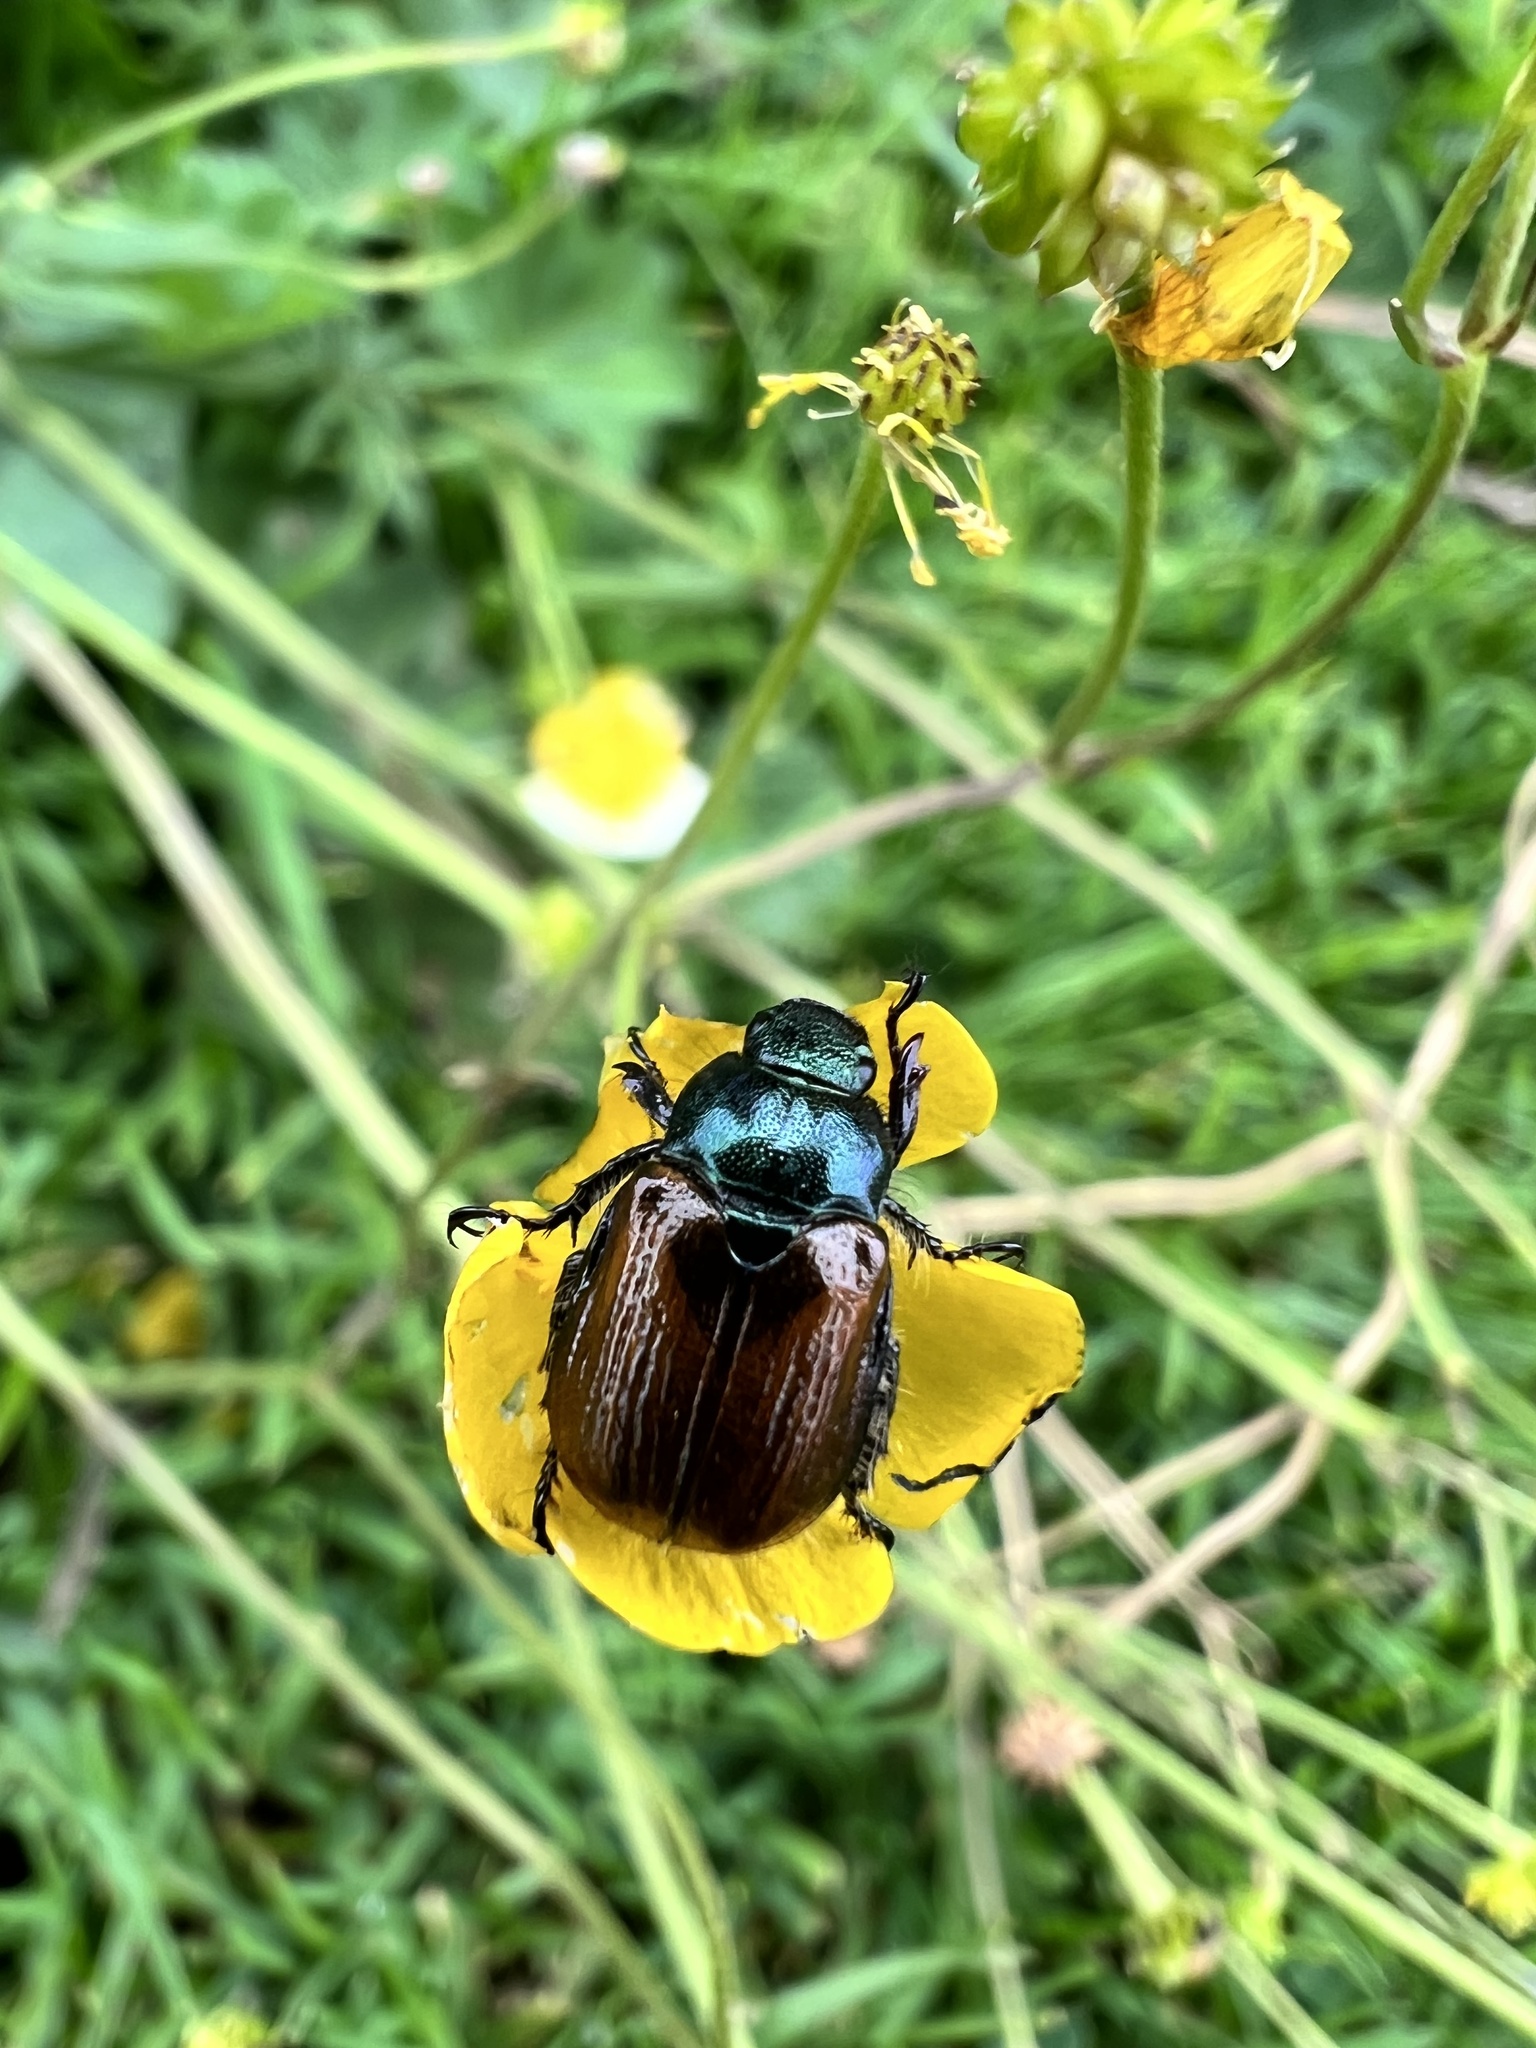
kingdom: Animalia
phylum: Arthropoda
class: Insecta
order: Coleoptera
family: Scarabaeidae
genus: Phyllopertha
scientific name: Phyllopertha horticola
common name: Garden chafer
